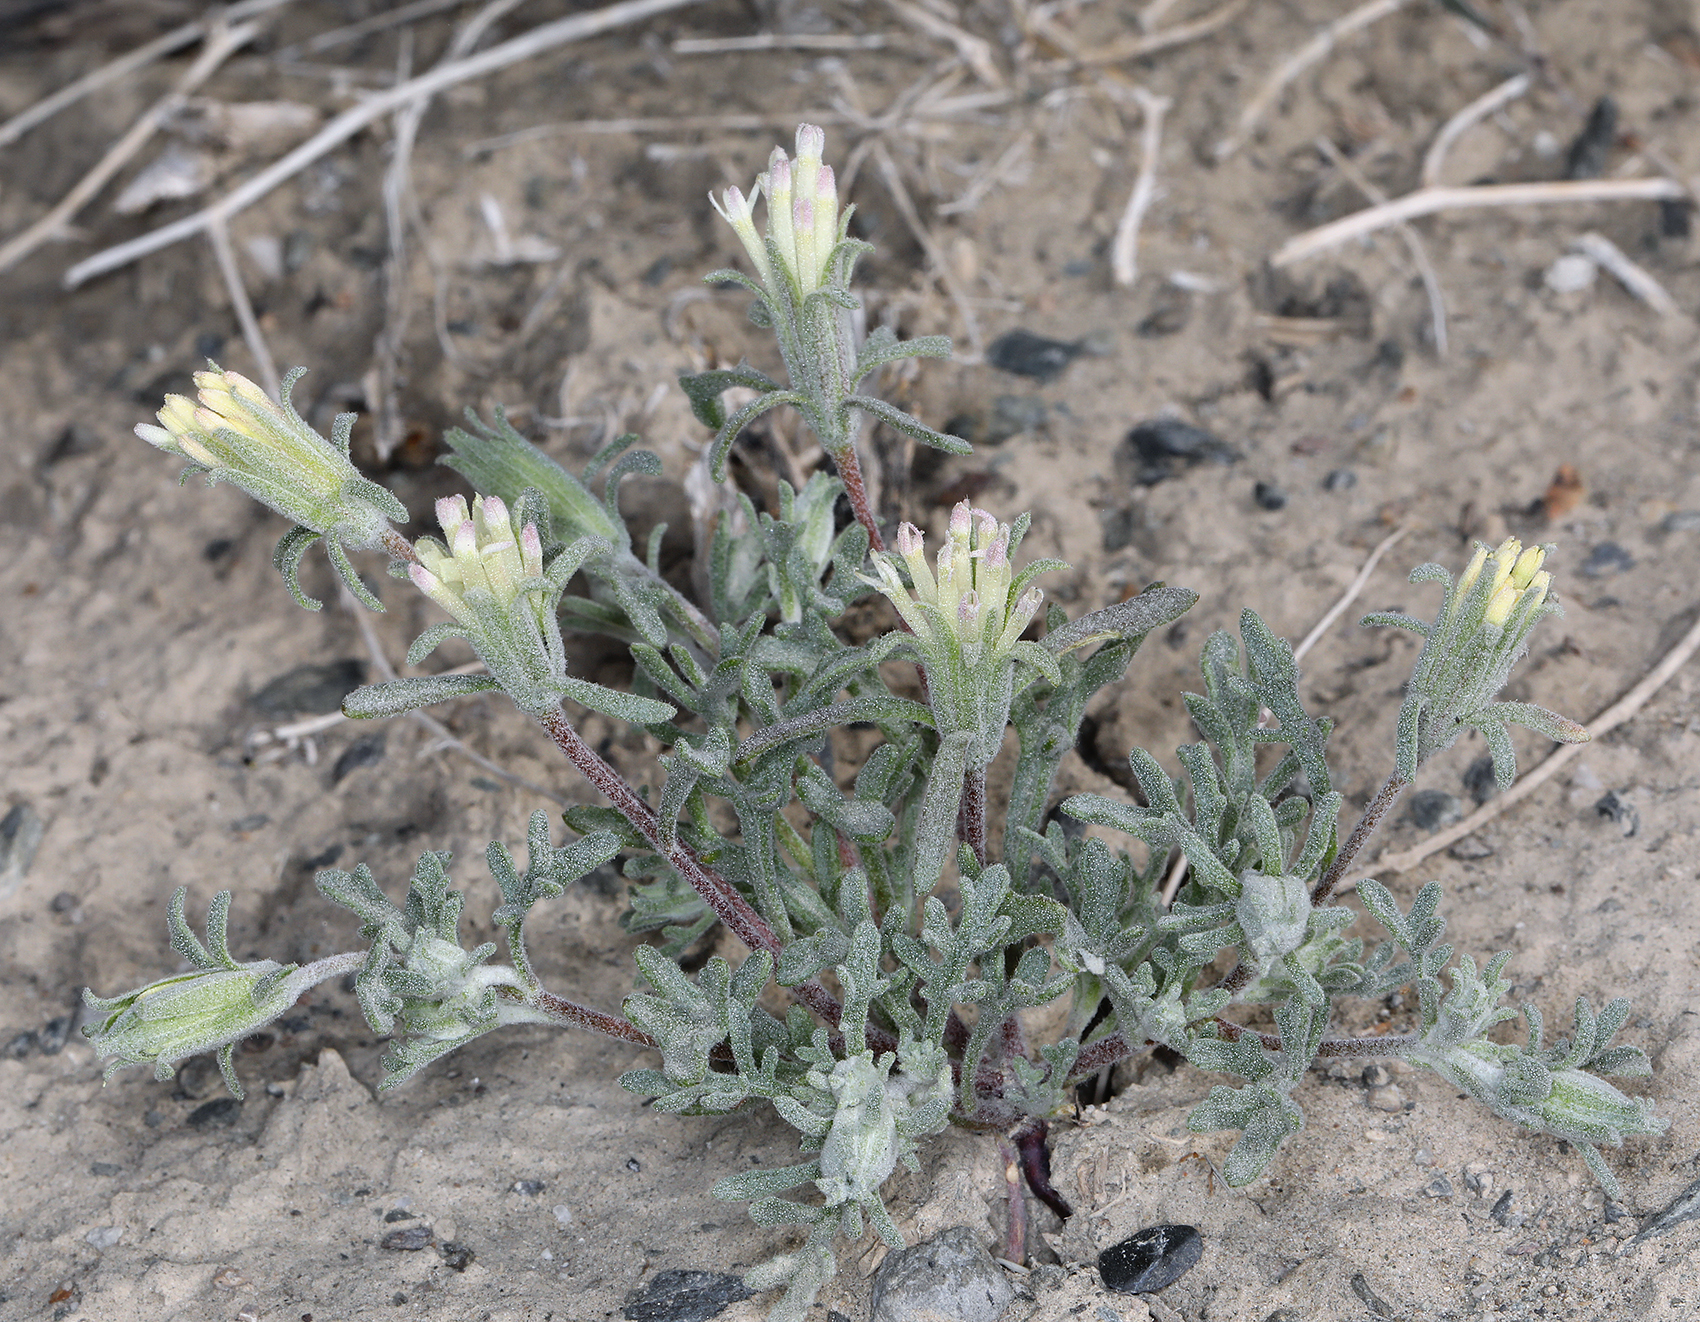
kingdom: Plantae
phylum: Tracheophyta
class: Magnoliopsida
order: Asterales
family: Asteraceae
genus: Chaenactis
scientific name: Chaenactis macrantha
